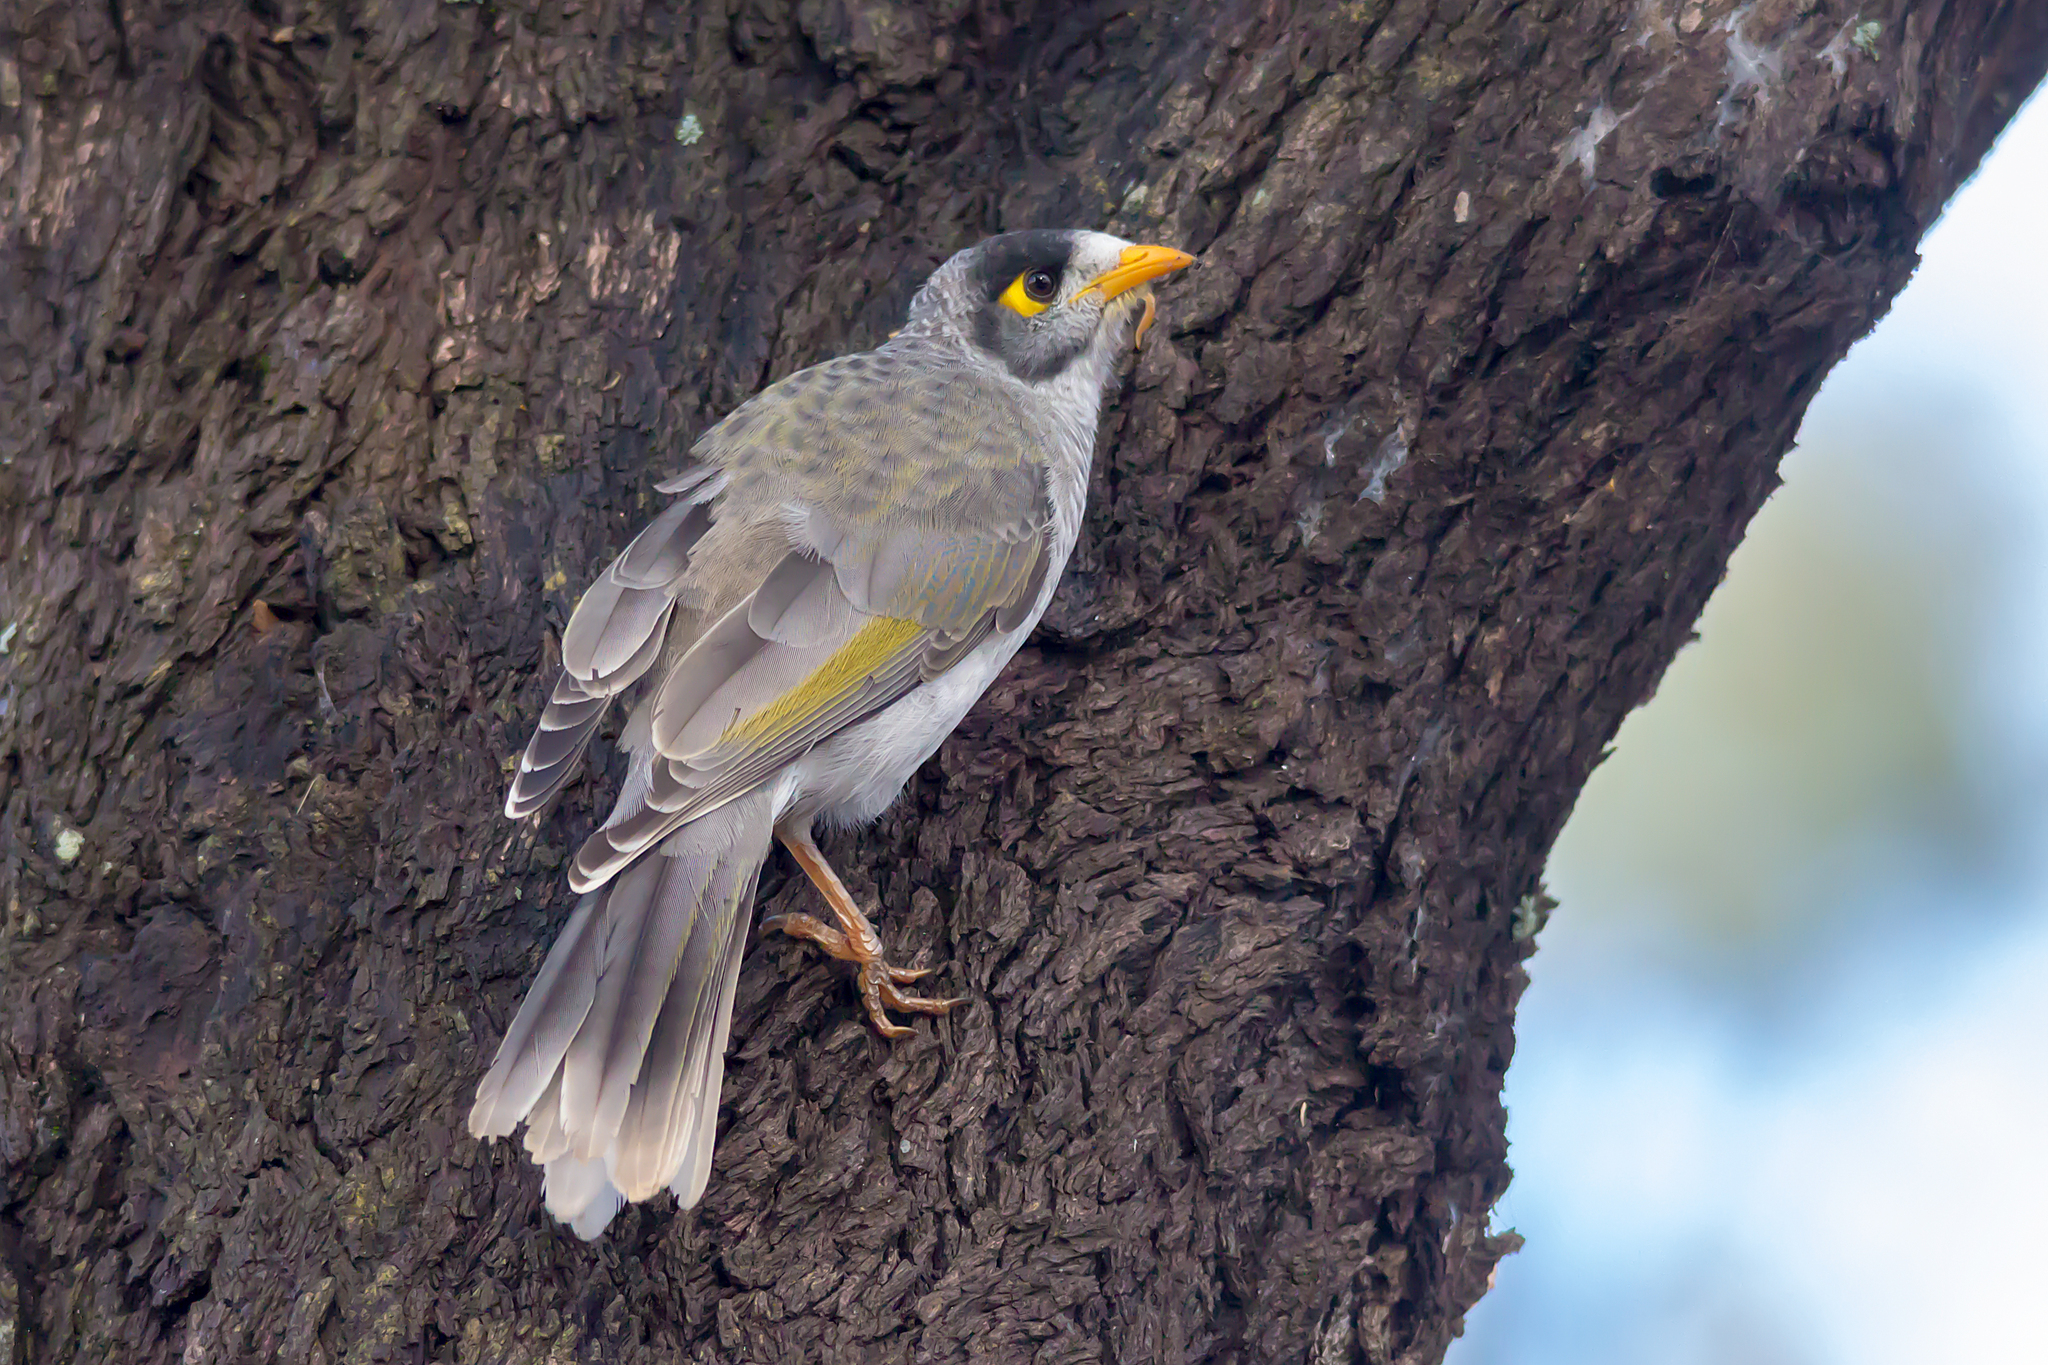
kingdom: Animalia
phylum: Chordata
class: Aves
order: Passeriformes
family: Meliphagidae
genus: Manorina
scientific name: Manorina melanocephala
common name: Noisy miner
